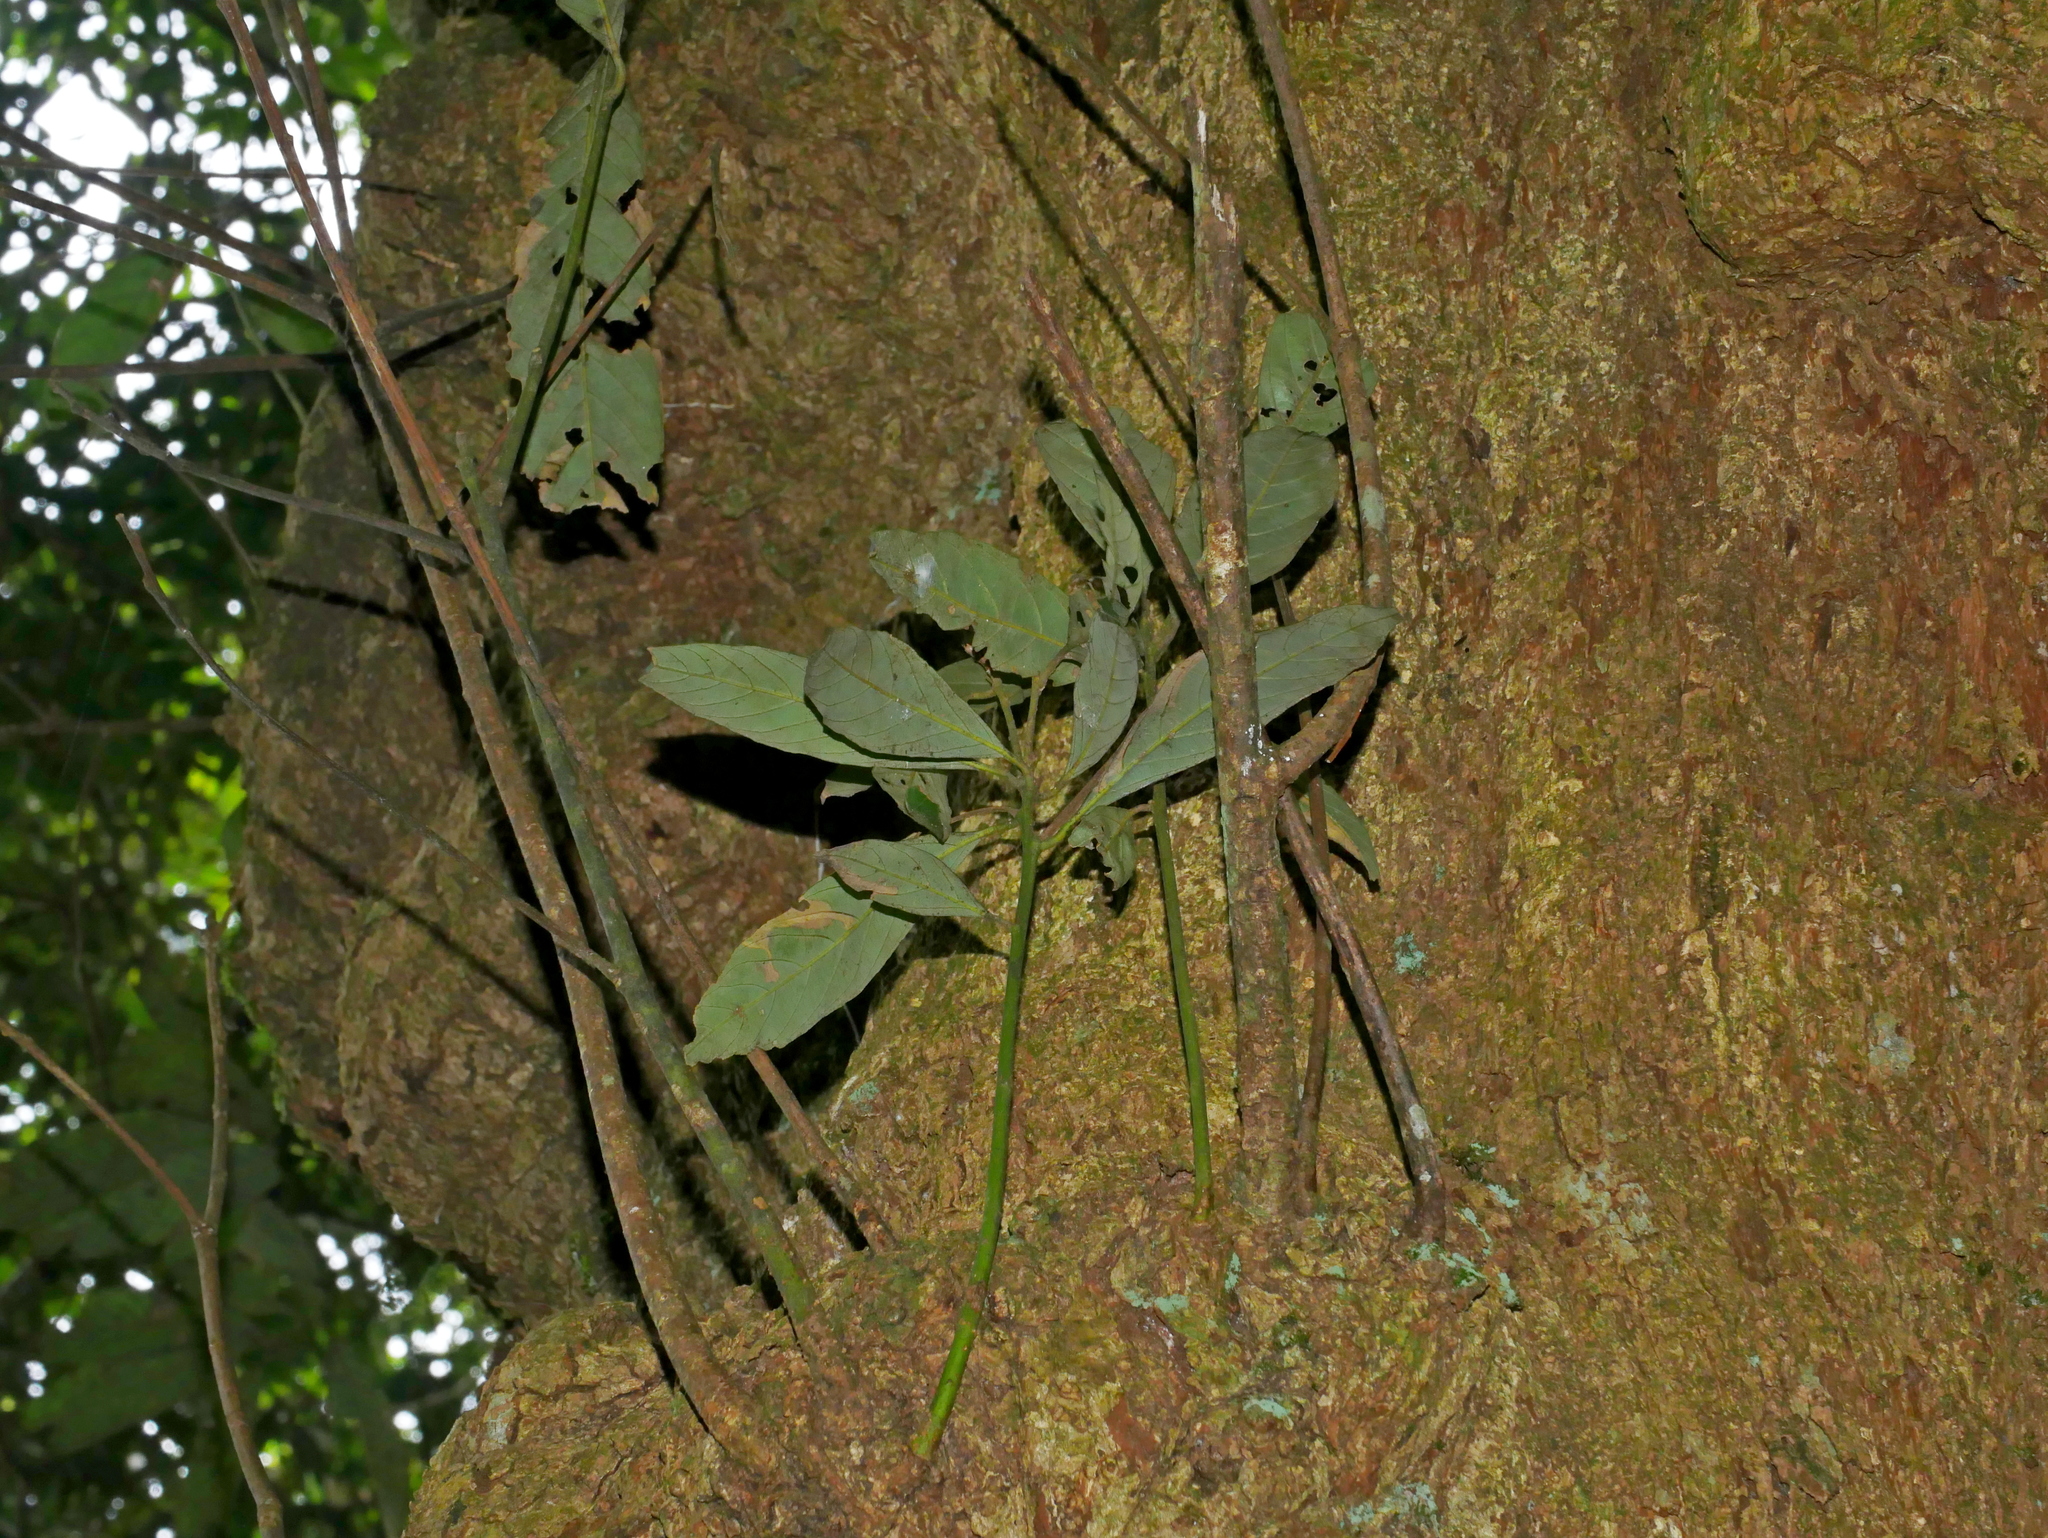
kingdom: Plantae
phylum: Tracheophyta
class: Magnoliopsida
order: Fagales
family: Fagaceae
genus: Lithocarpus
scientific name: Lithocarpus amygdalifolius
